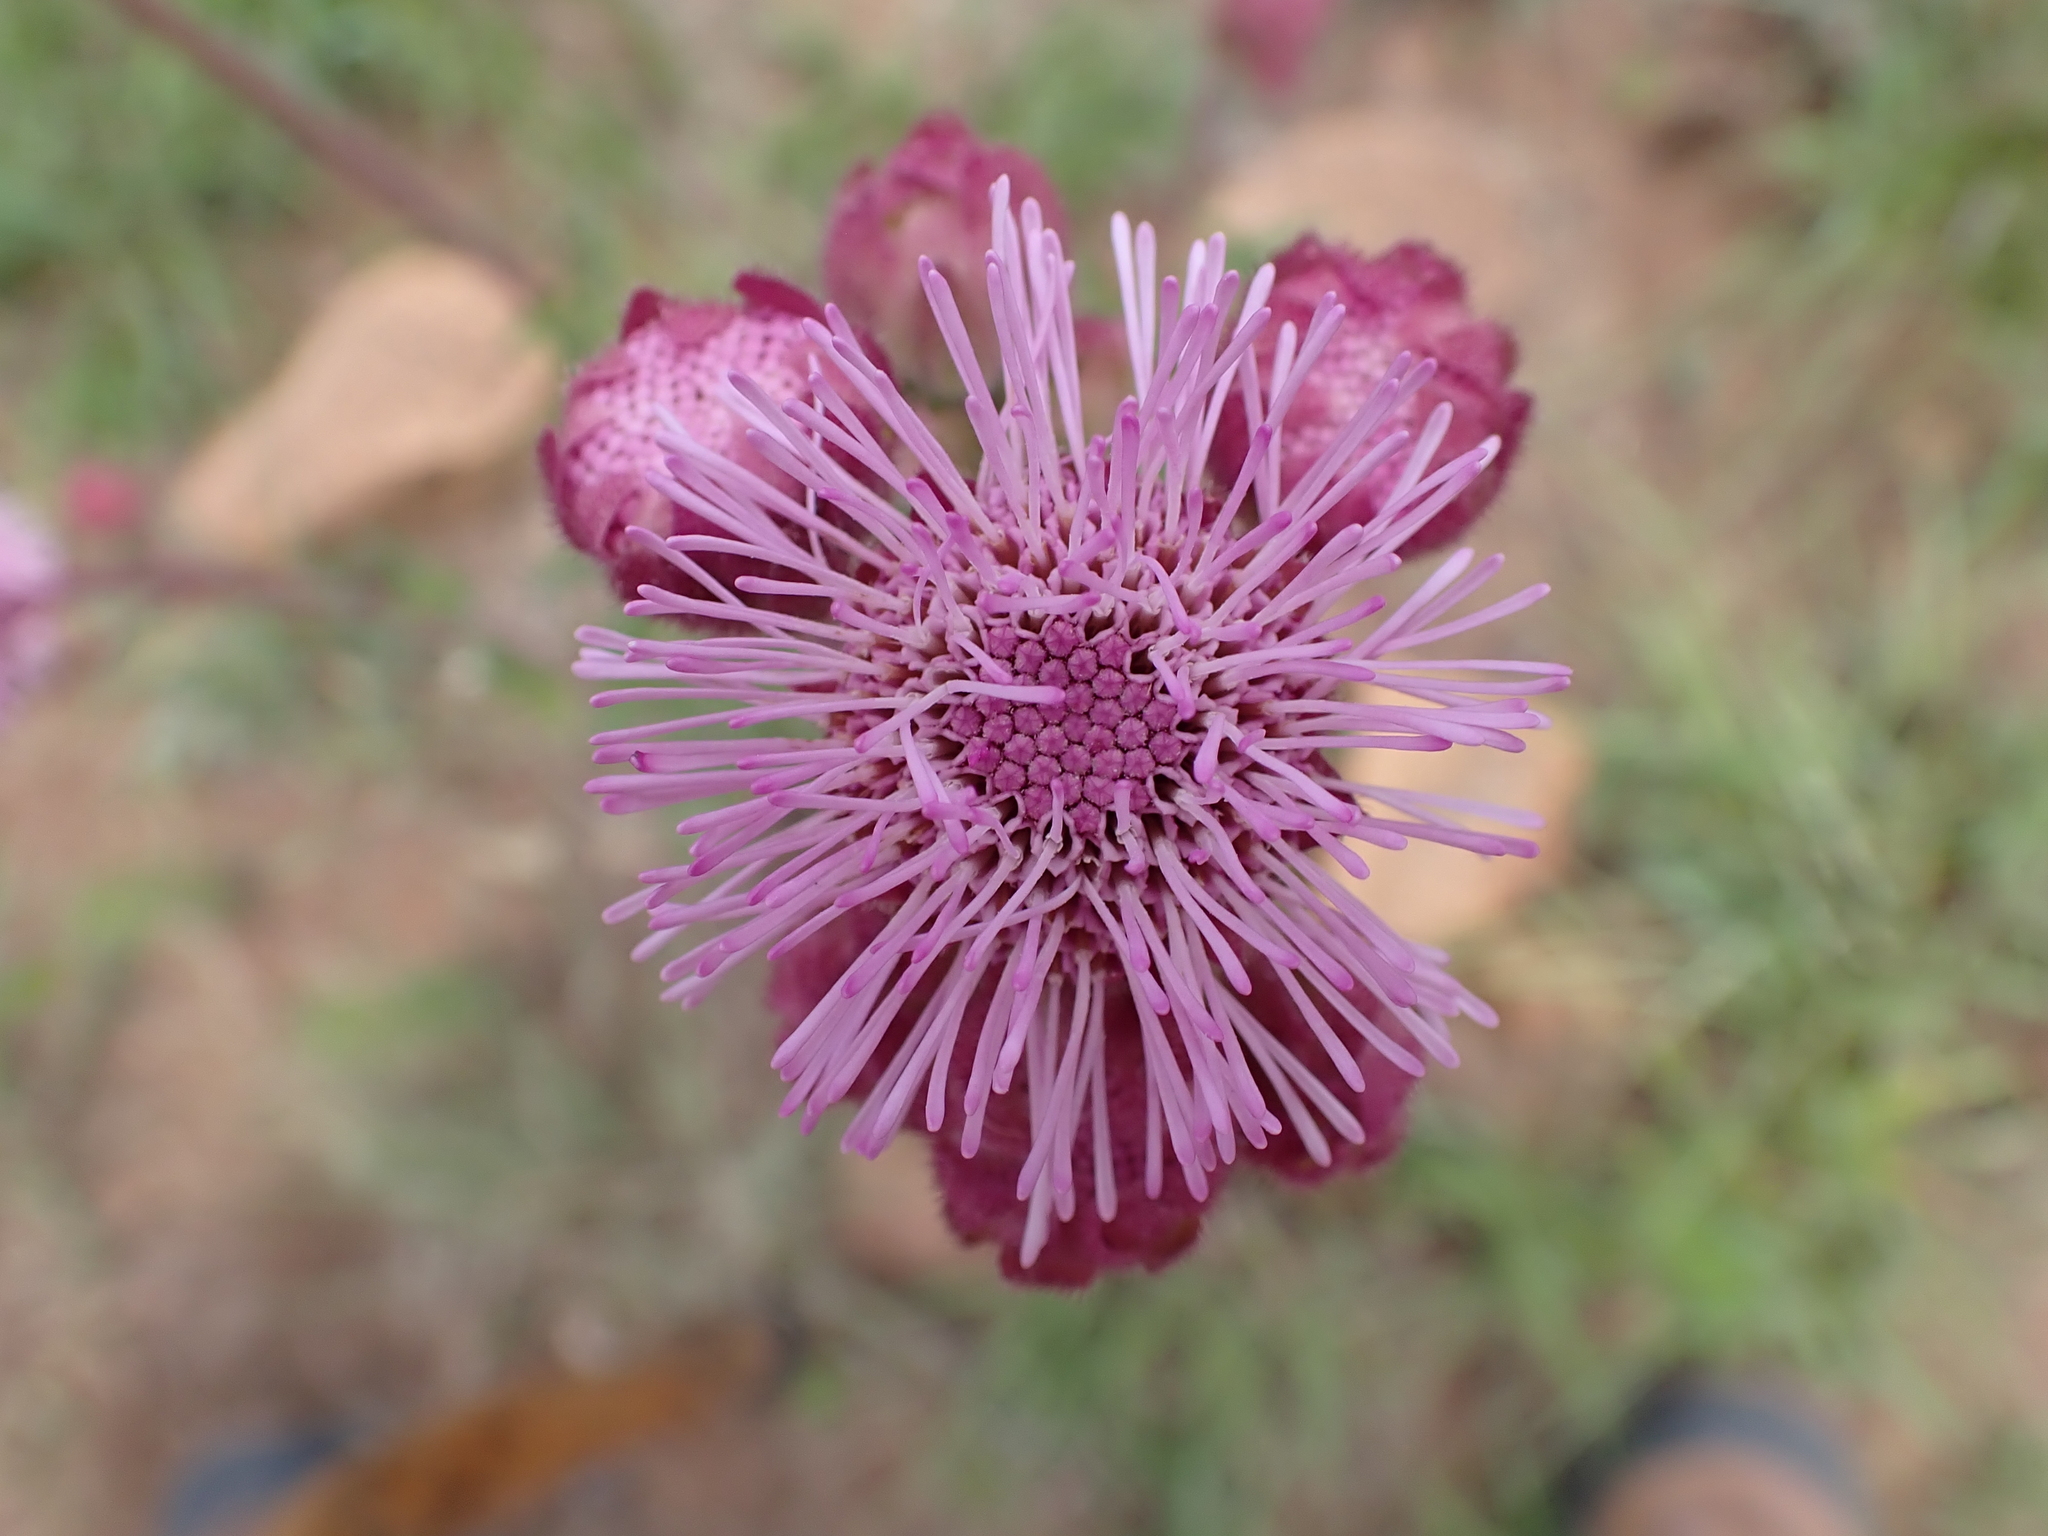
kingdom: Plantae
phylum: Tracheophyta
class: Magnoliopsida
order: Asterales
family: Asteraceae
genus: Campuloclinium
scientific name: Campuloclinium macrocephalum
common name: Pompomweed
